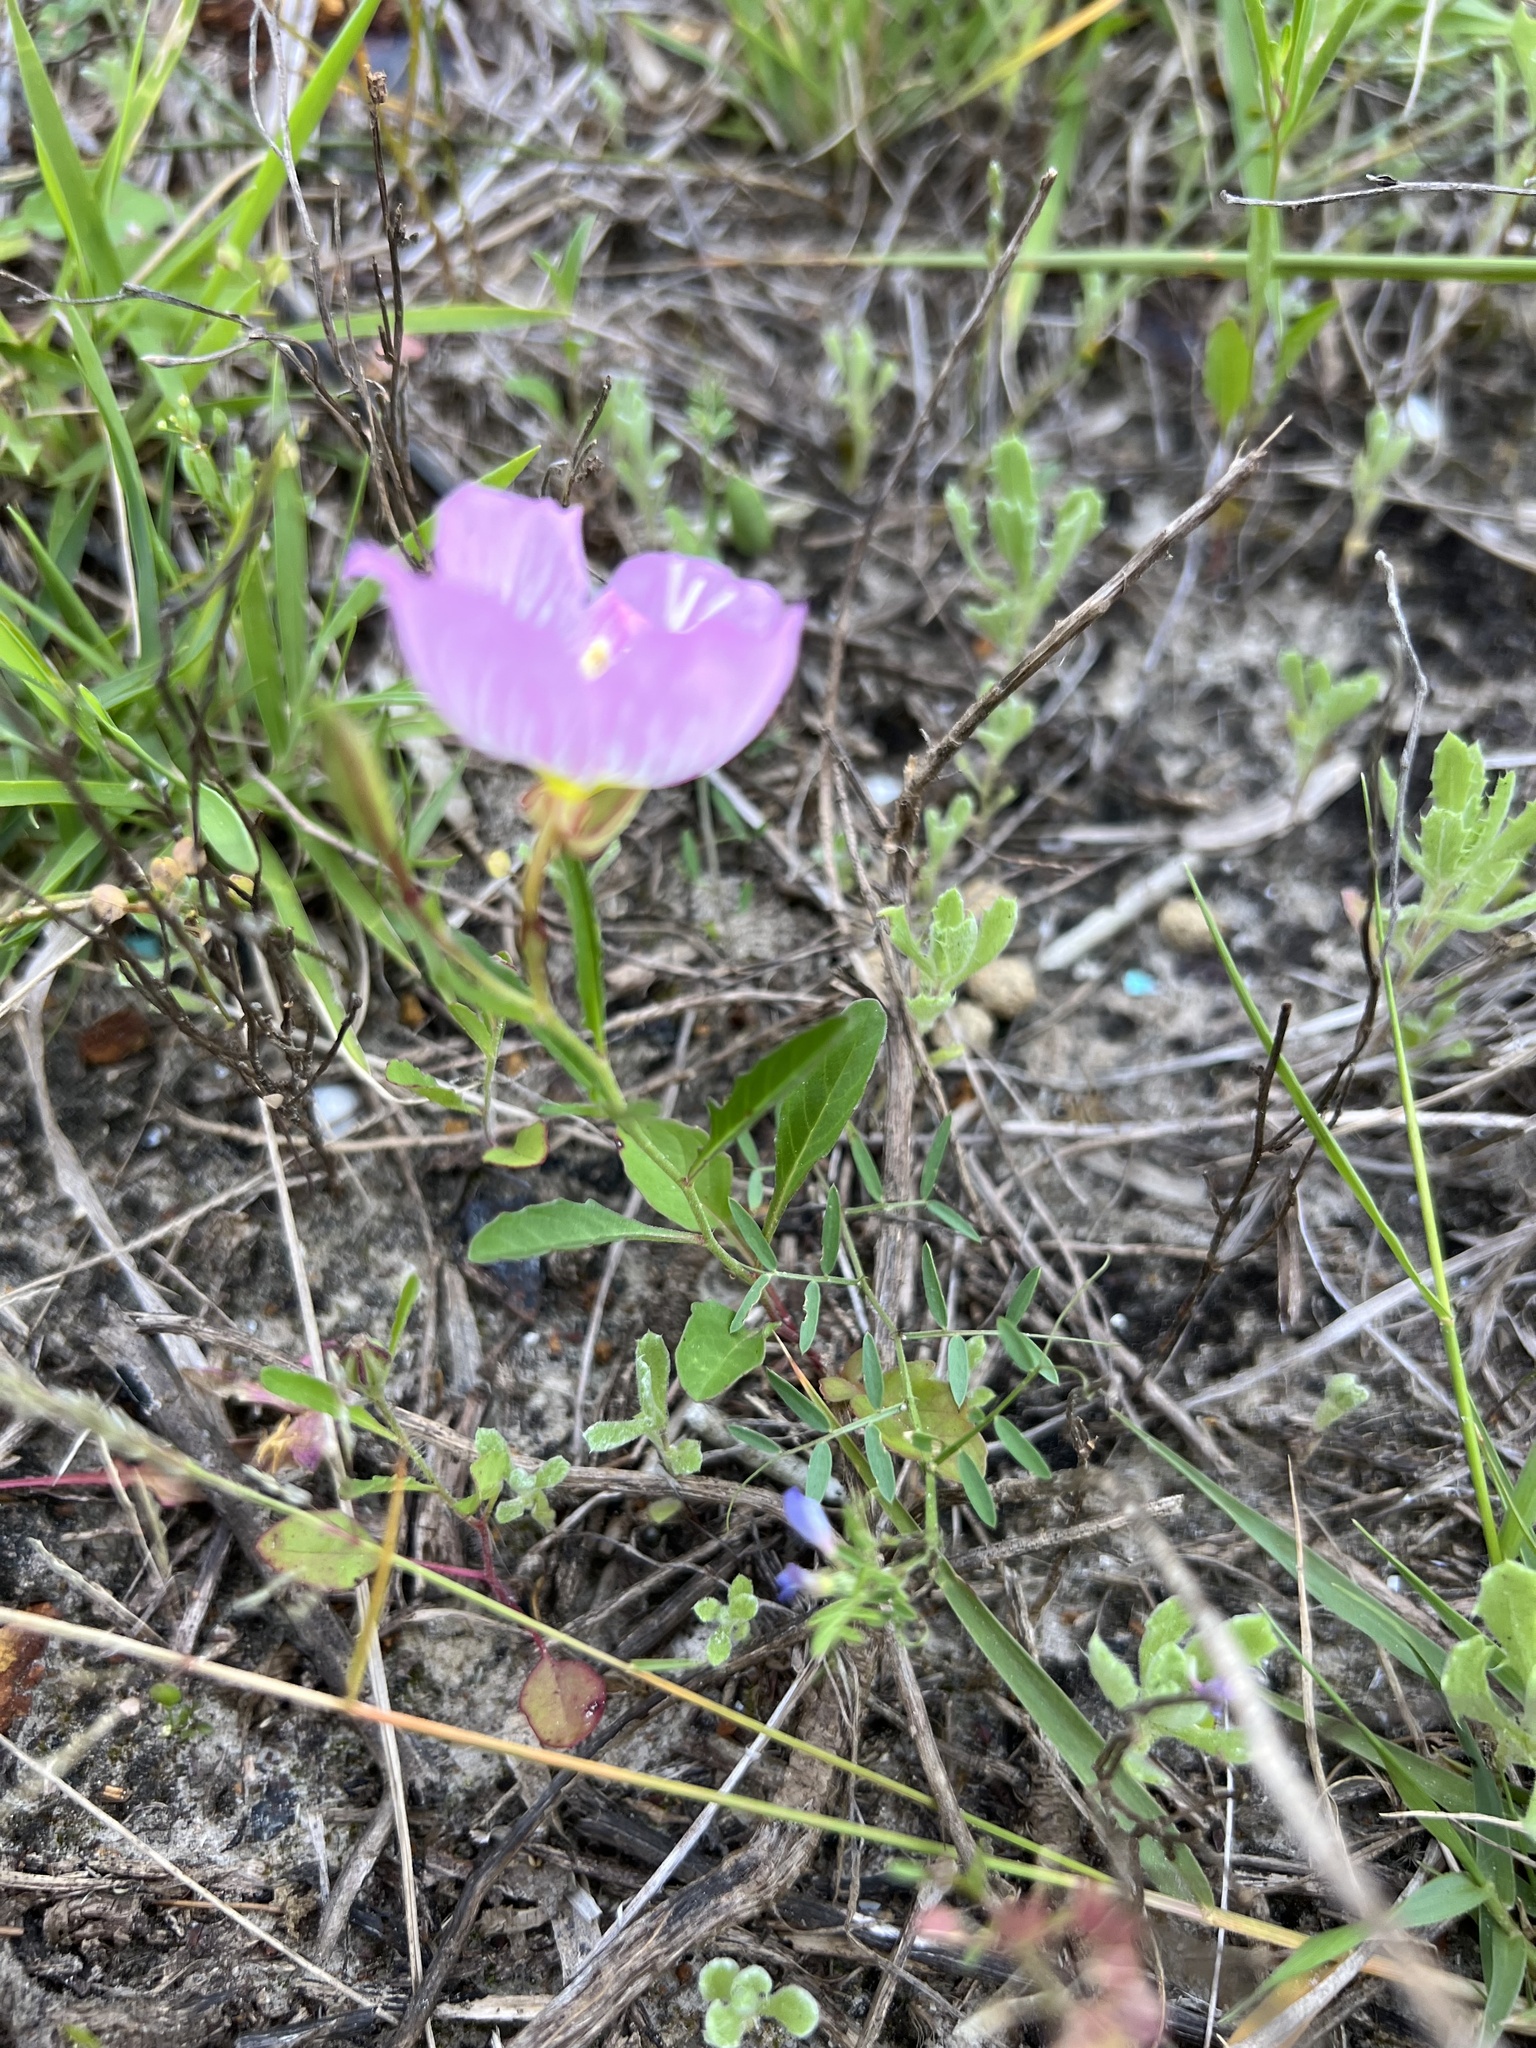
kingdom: Plantae
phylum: Tracheophyta
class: Magnoliopsida
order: Myrtales
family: Onagraceae
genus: Oenothera
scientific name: Oenothera speciosa
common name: White evening-primrose
